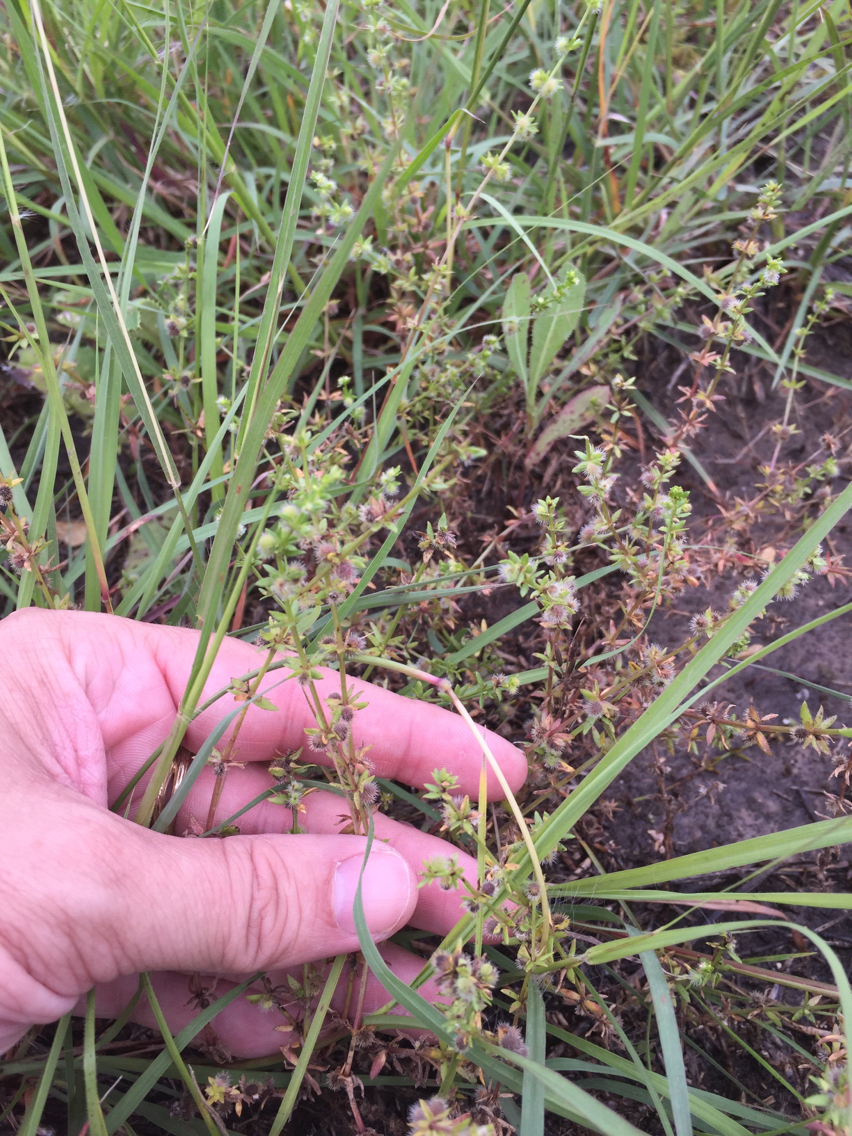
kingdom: Plantae
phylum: Tracheophyta
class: Magnoliopsida
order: Gentianales
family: Rubiaceae
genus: Galium
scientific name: Galium virgatum
